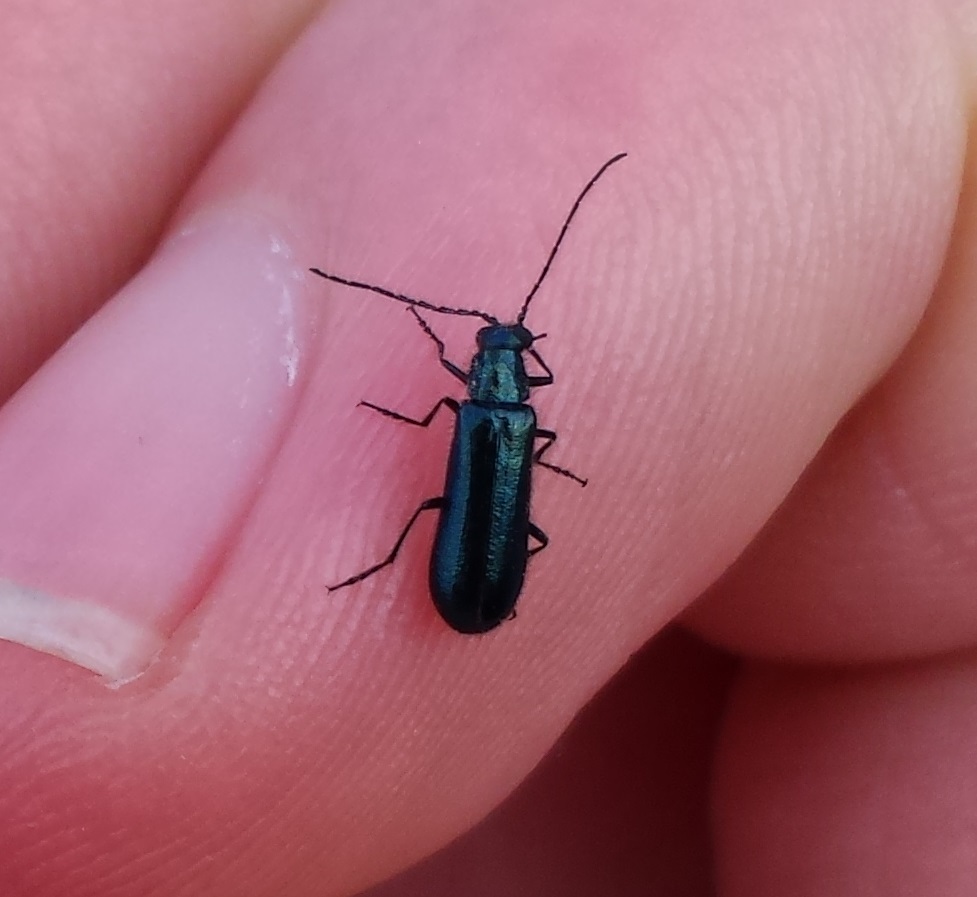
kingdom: Animalia
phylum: Arthropoda
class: Insecta
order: Coleoptera
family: Melyridae
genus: Dasytes
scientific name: Dasytes caeruleus
